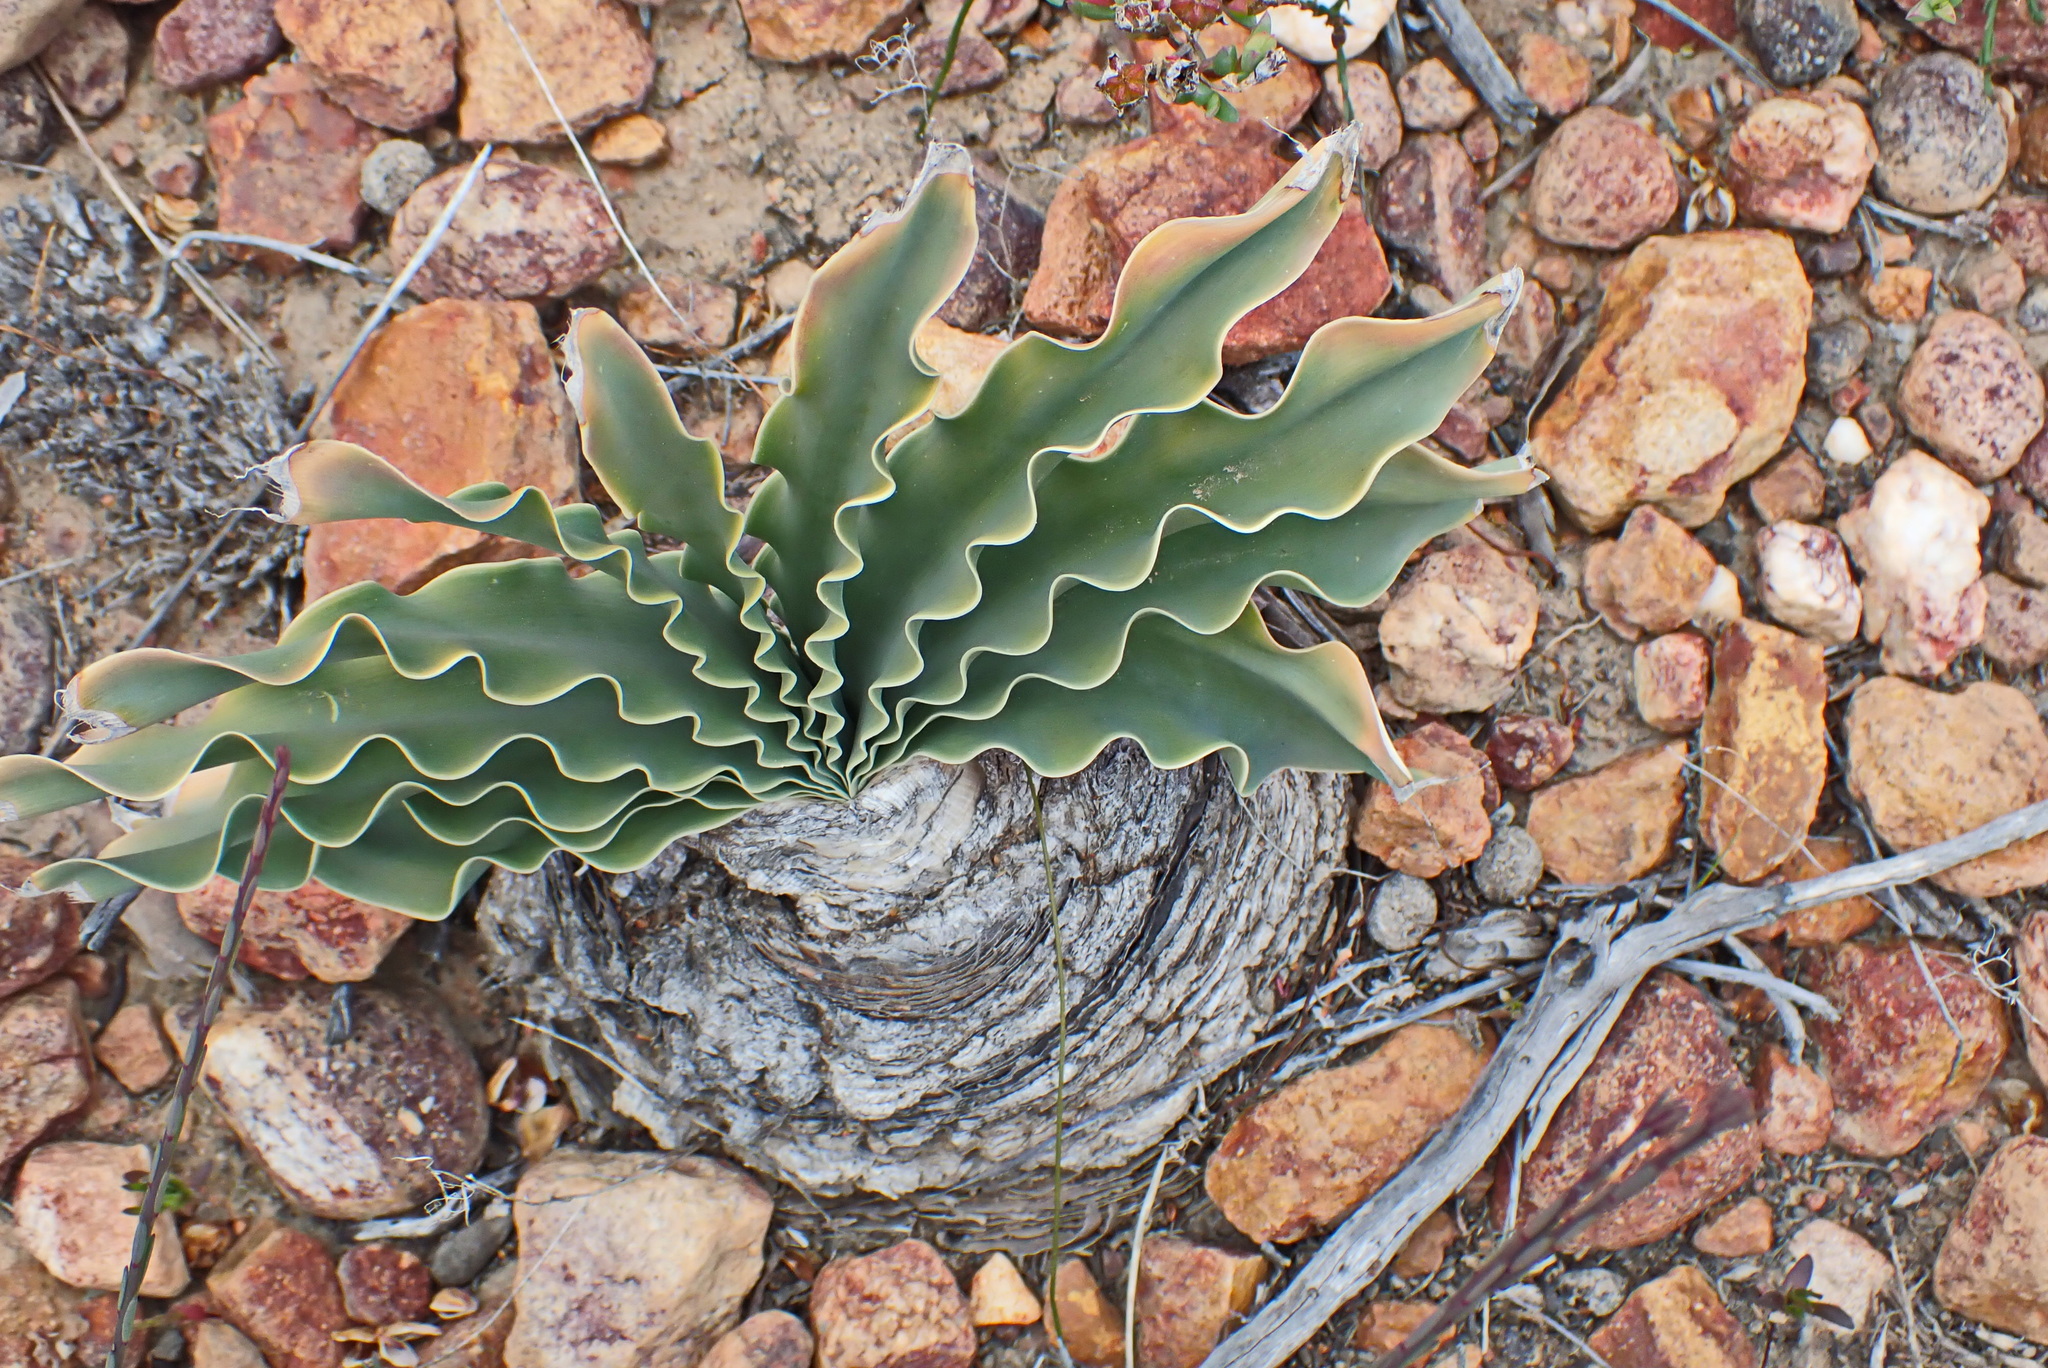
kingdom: Plantae
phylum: Tracheophyta
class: Liliopsida
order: Asparagales
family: Amaryllidaceae
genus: Boophone
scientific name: Boophone disticha
